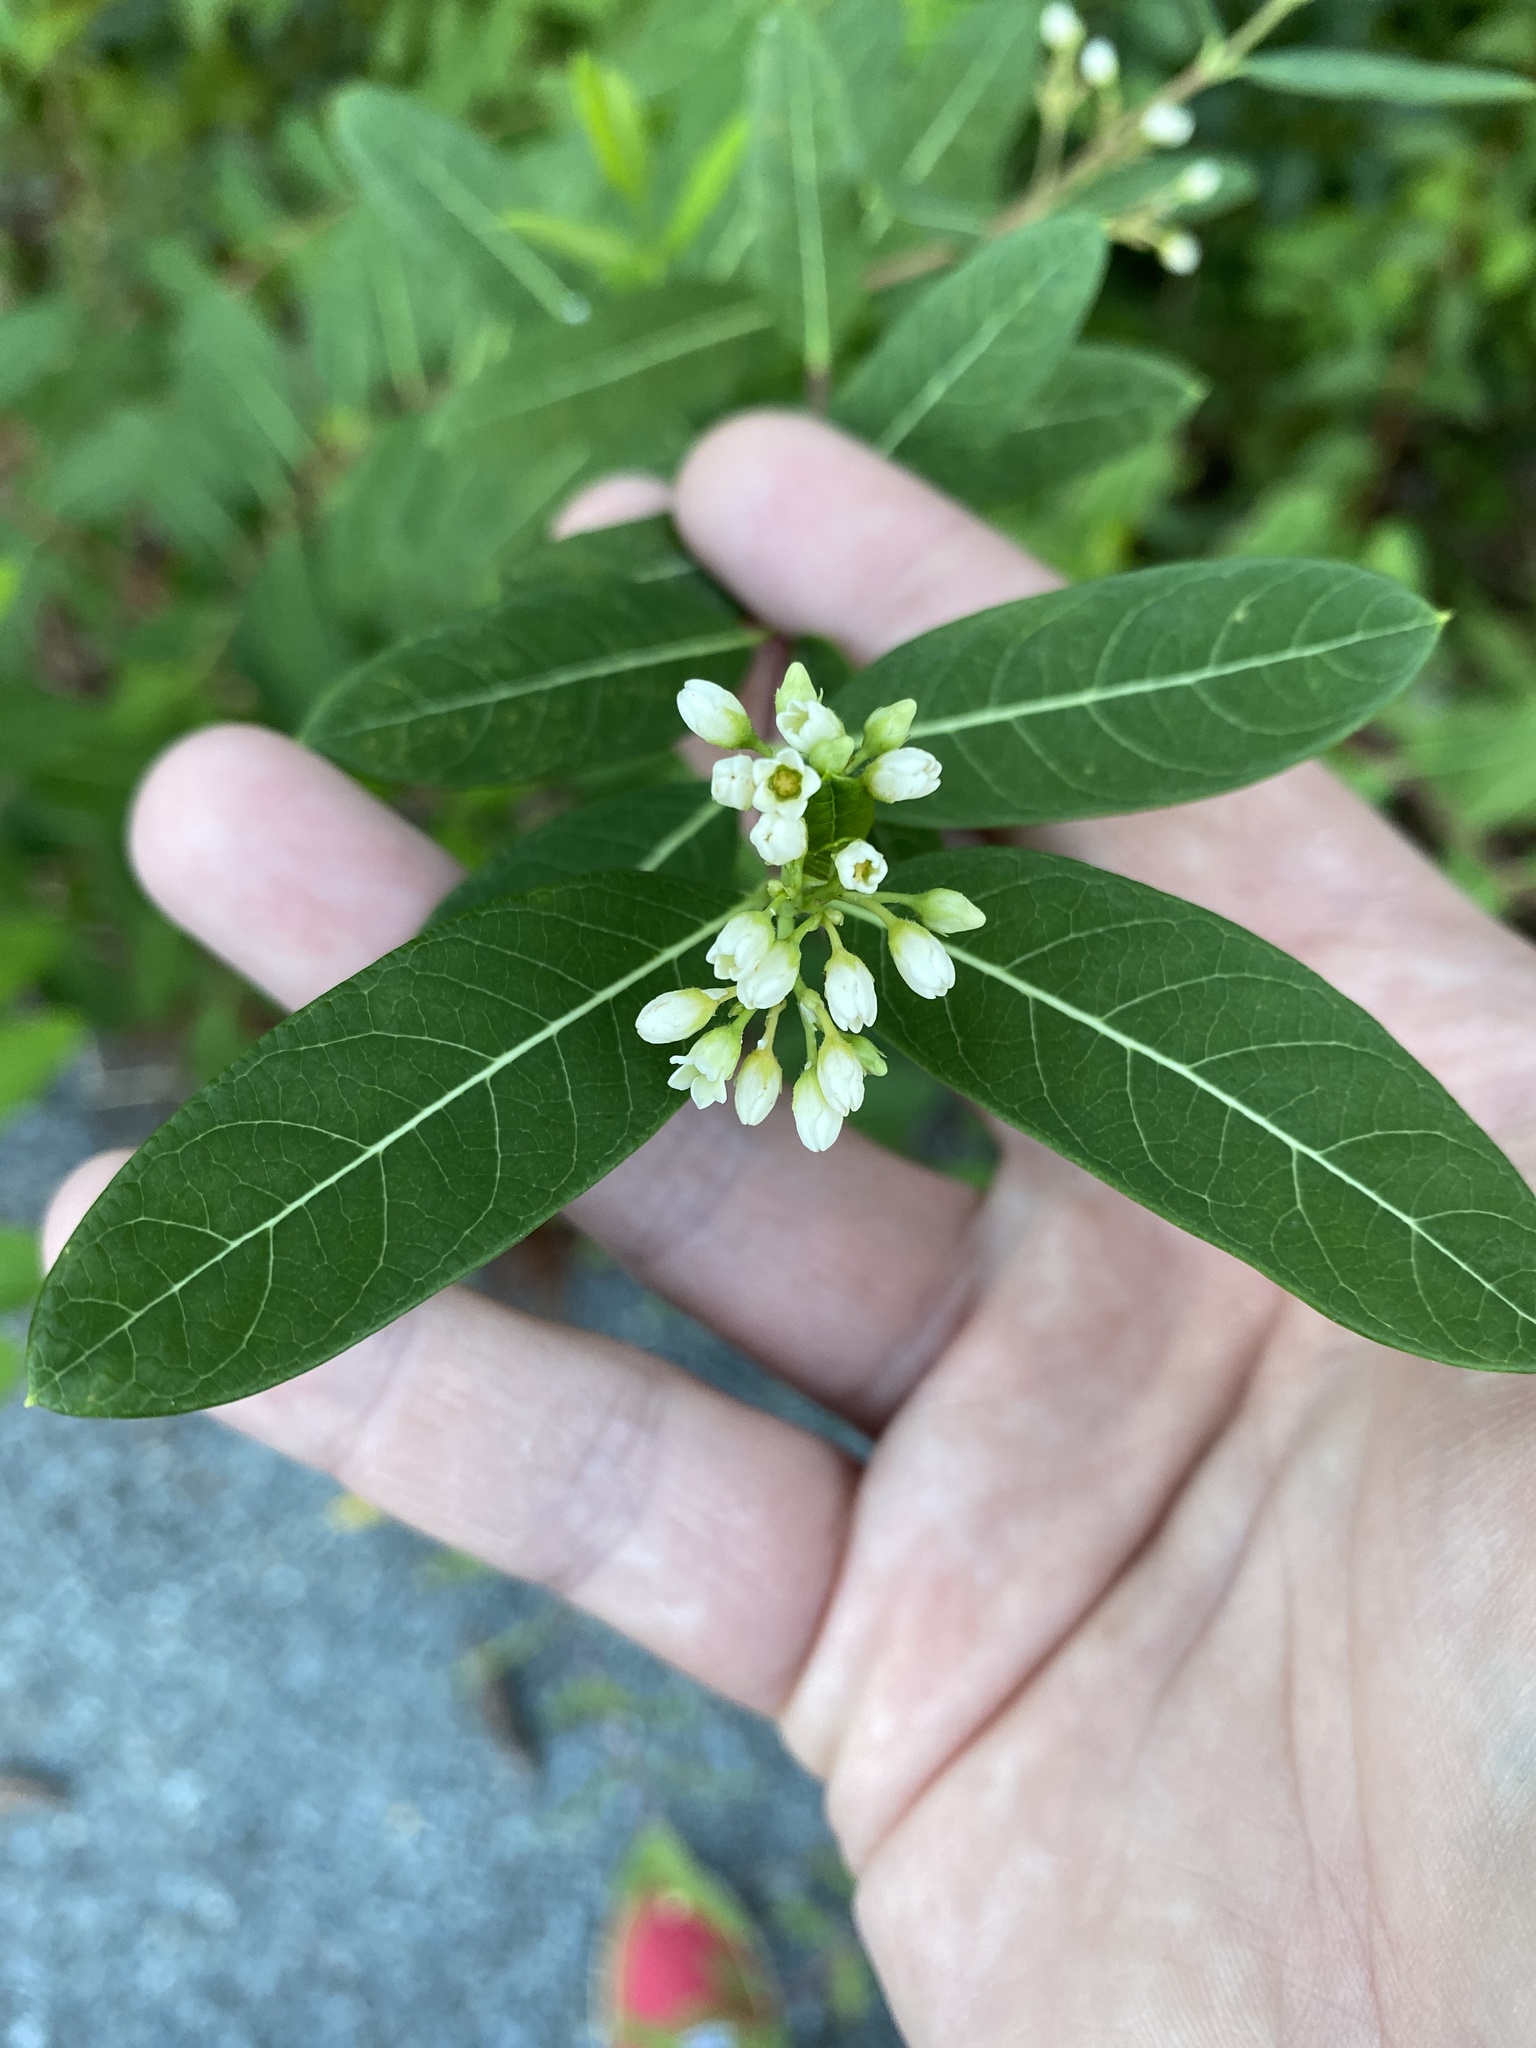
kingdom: Plantae
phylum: Tracheophyta
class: Magnoliopsida
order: Gentianales
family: Apocynaceae
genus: Apocynum
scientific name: Apocynum cannabinum
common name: Hemp dogbane
